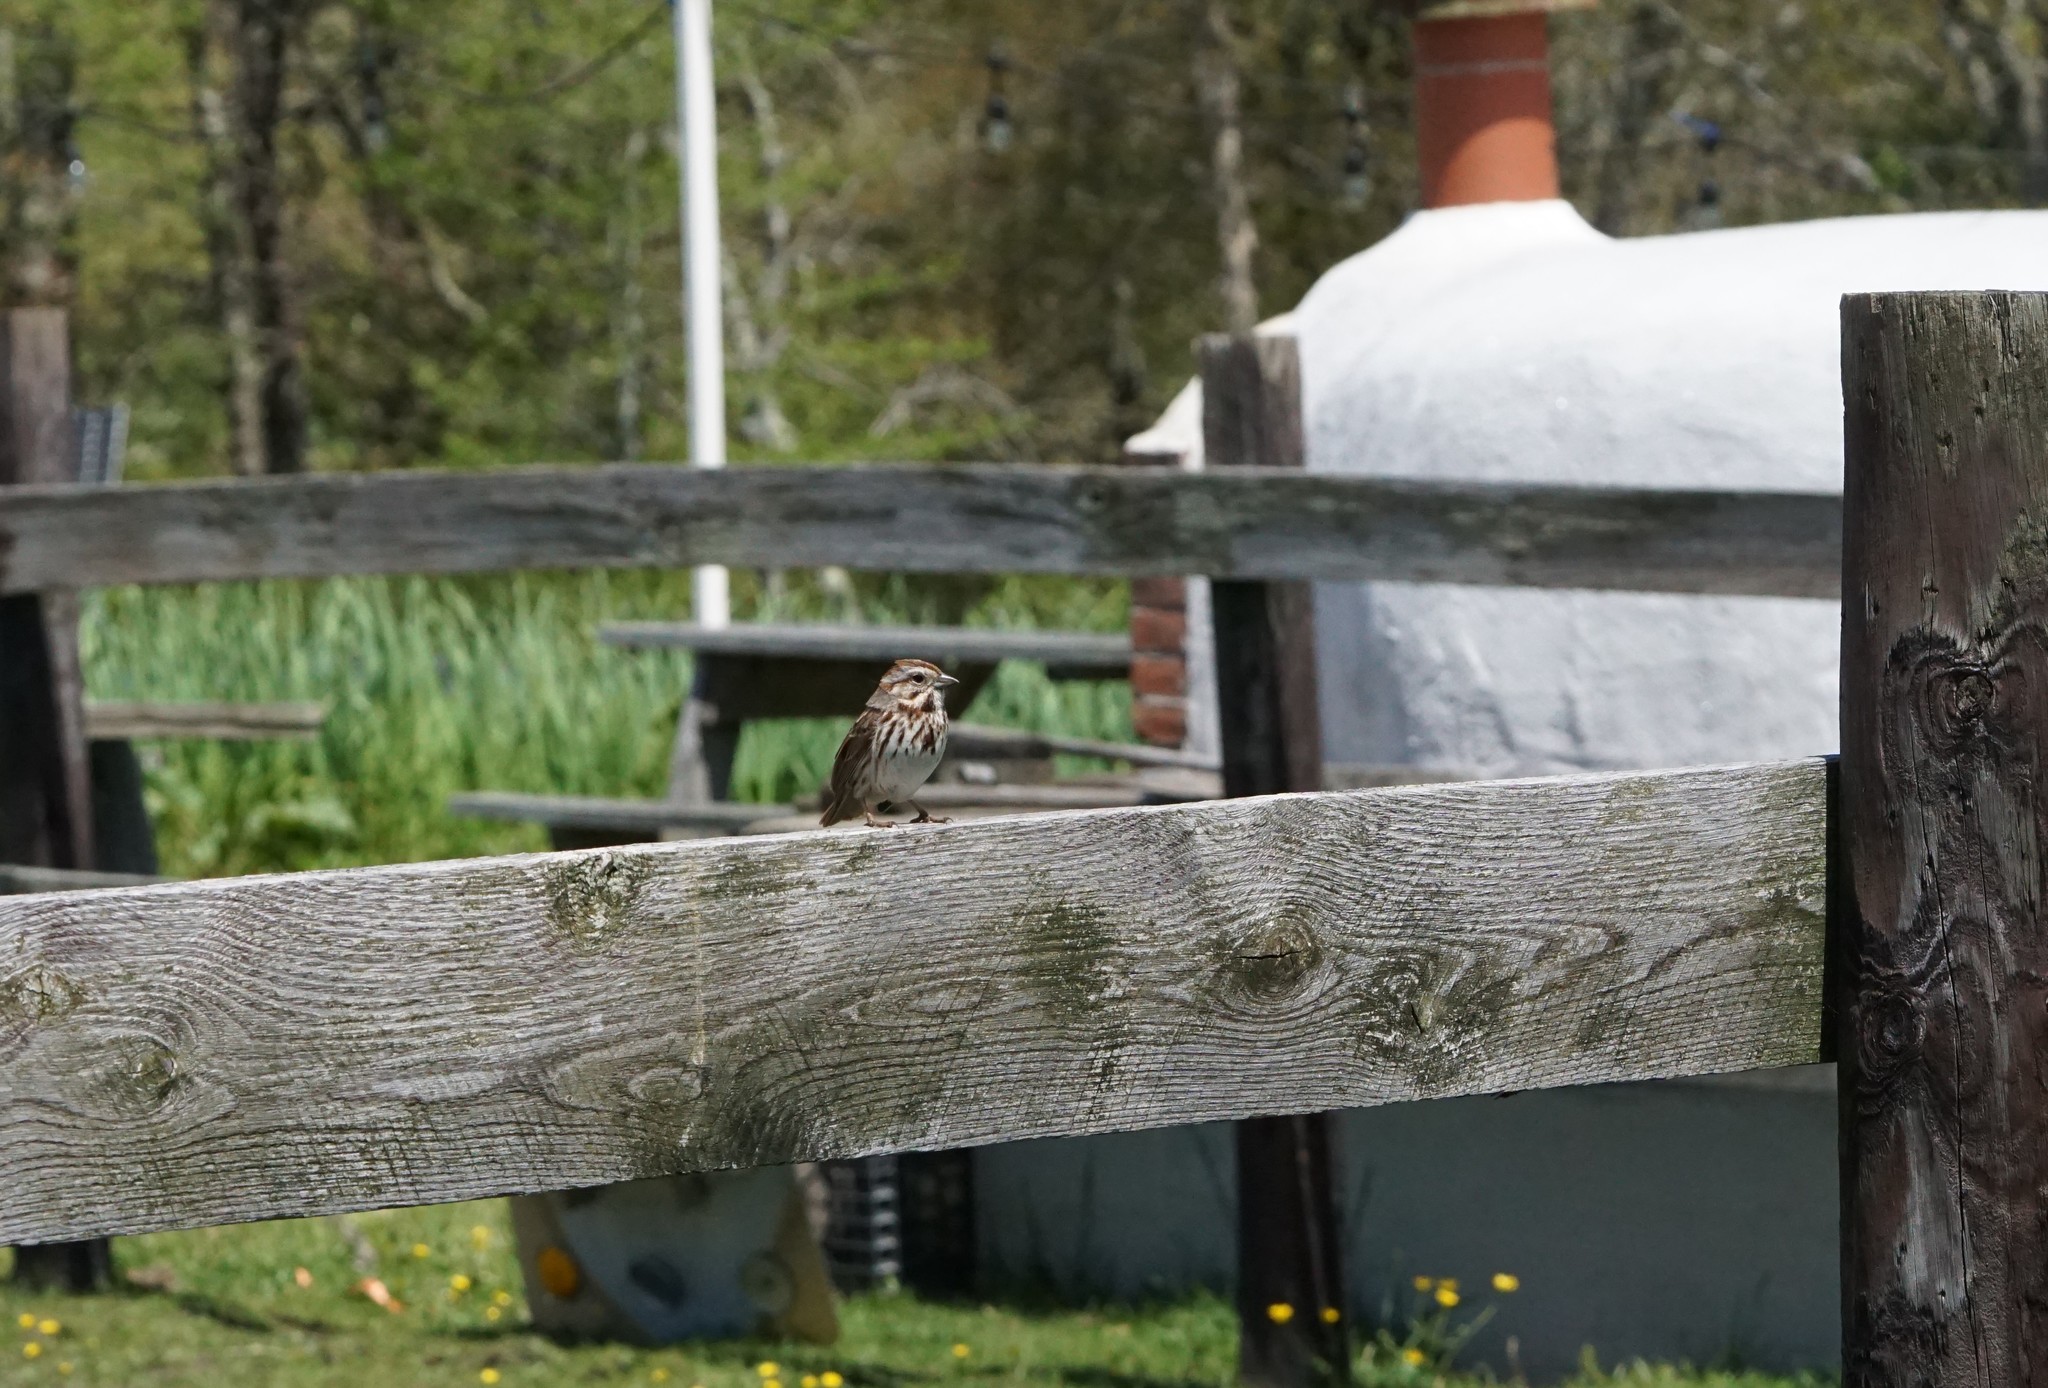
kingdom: Animalia
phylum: Chordata
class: Aves
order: Passeriformes
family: Passerellidae
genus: Melospiza
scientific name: Melospiza melodia
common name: Song sparrow
